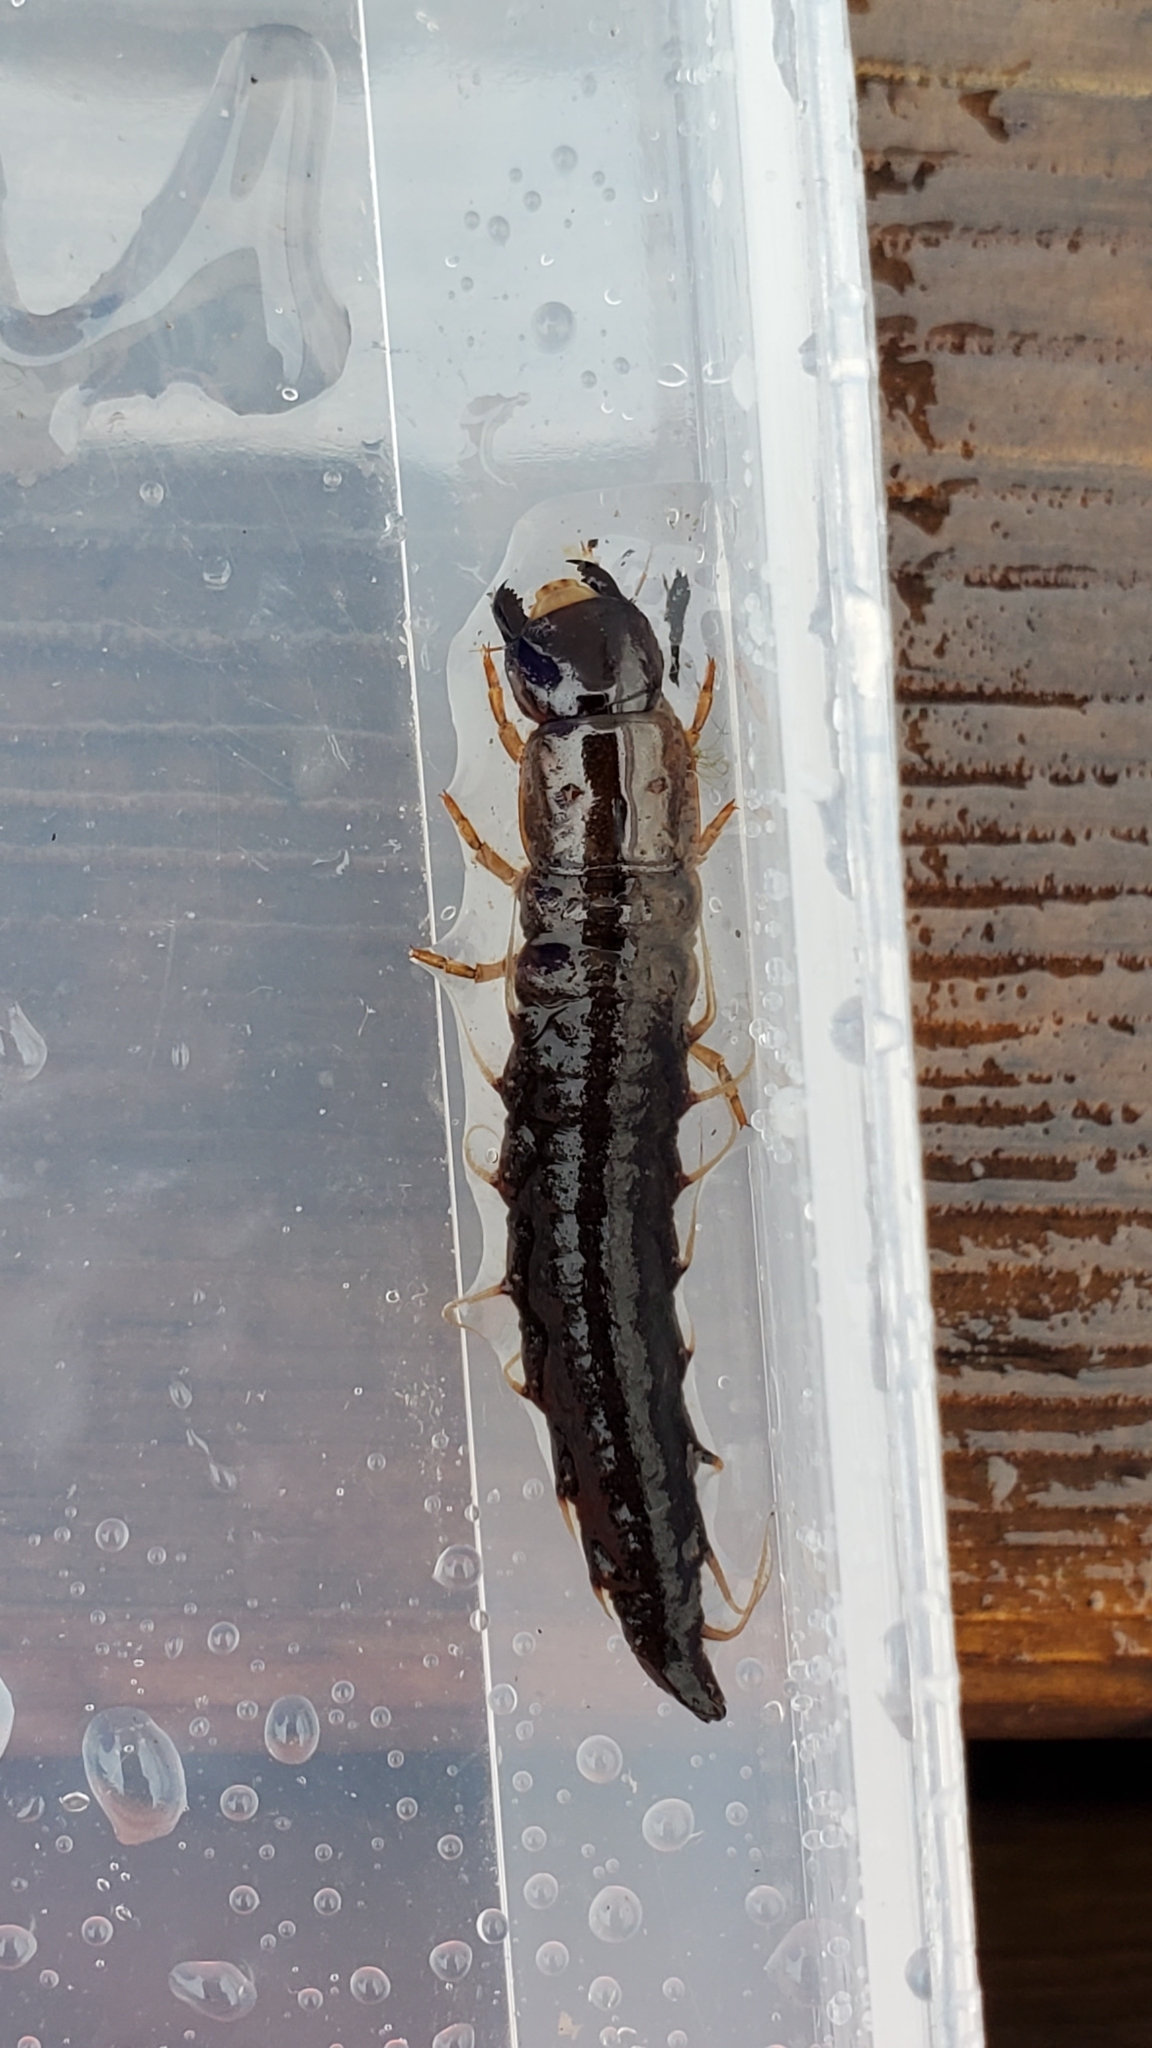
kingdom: Animalia
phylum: Arthropoda
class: Insecta
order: Megaloptera
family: Corydalidae
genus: Chauliodes
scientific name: Chauliodes rastricornis
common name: Spring fishfly
